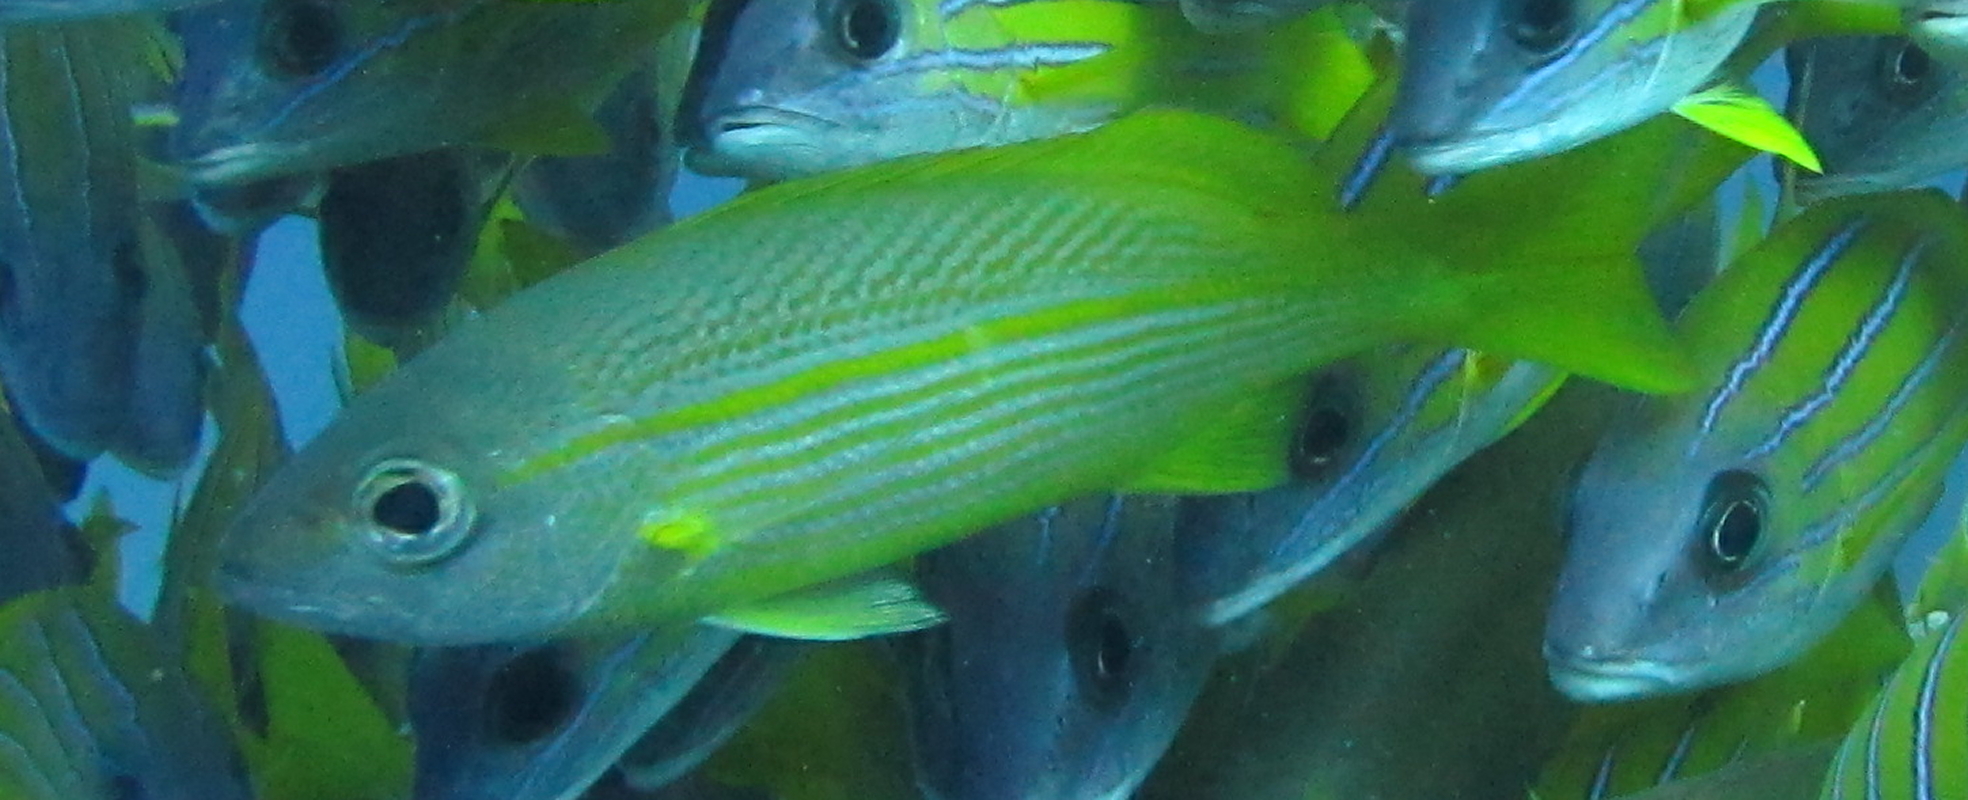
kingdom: Animalia
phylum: Chordata
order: Perciformes
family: Lutjanidae
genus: Lutjanus
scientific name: Lutjanus lutjanus
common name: Bigeye snapper
